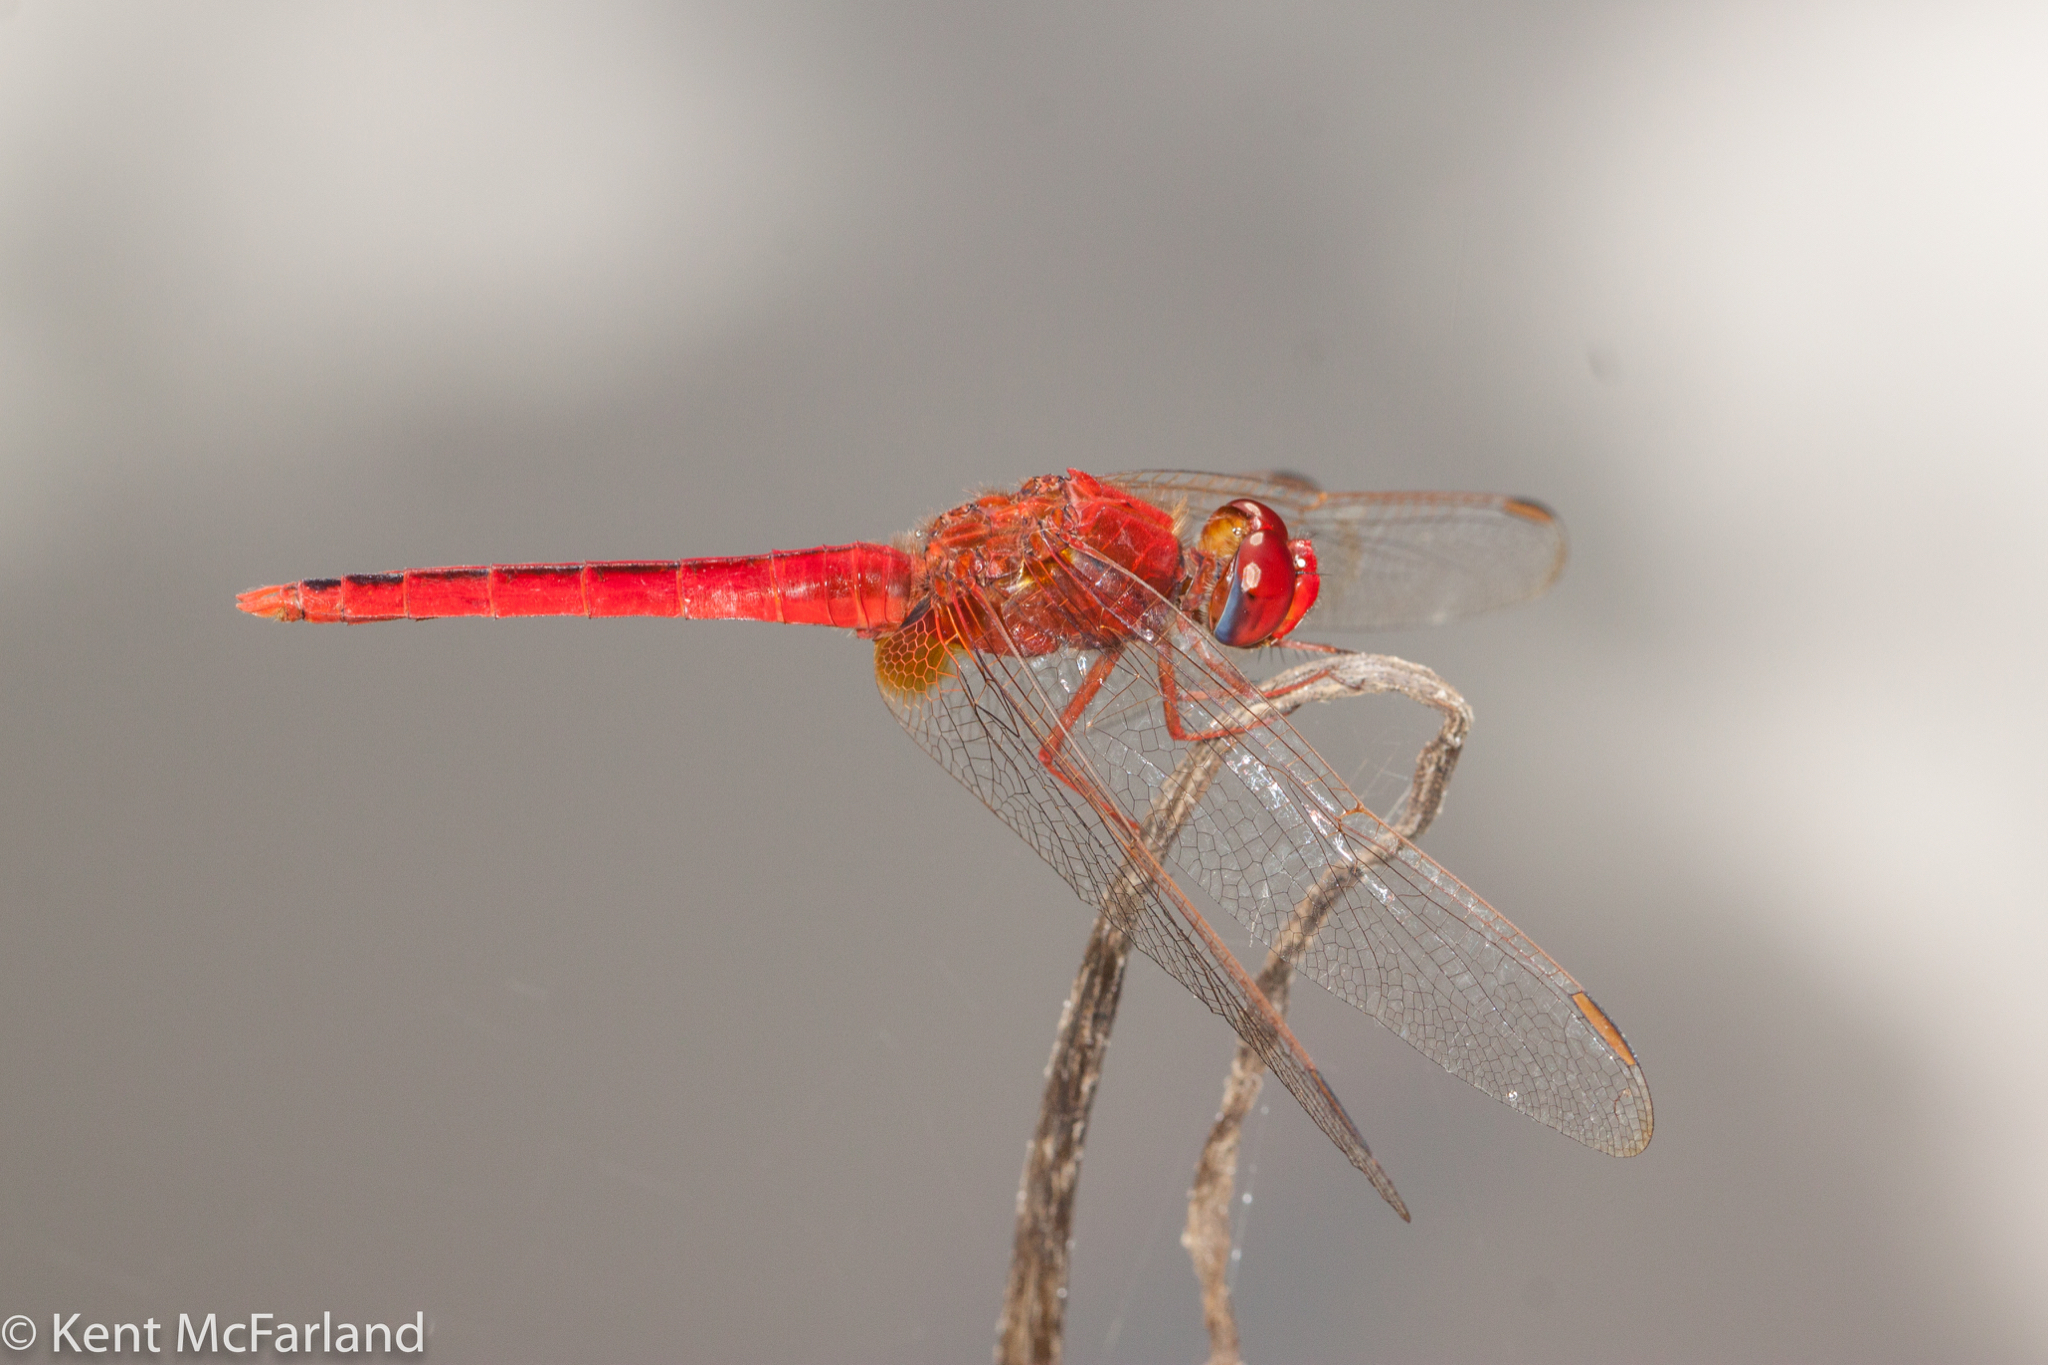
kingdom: Animalia
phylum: Arthropoda
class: Insecta
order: Odonata
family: Libellulidae
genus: Crocothemis
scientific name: Crocothemis servilia
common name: Scarlet skimmer
